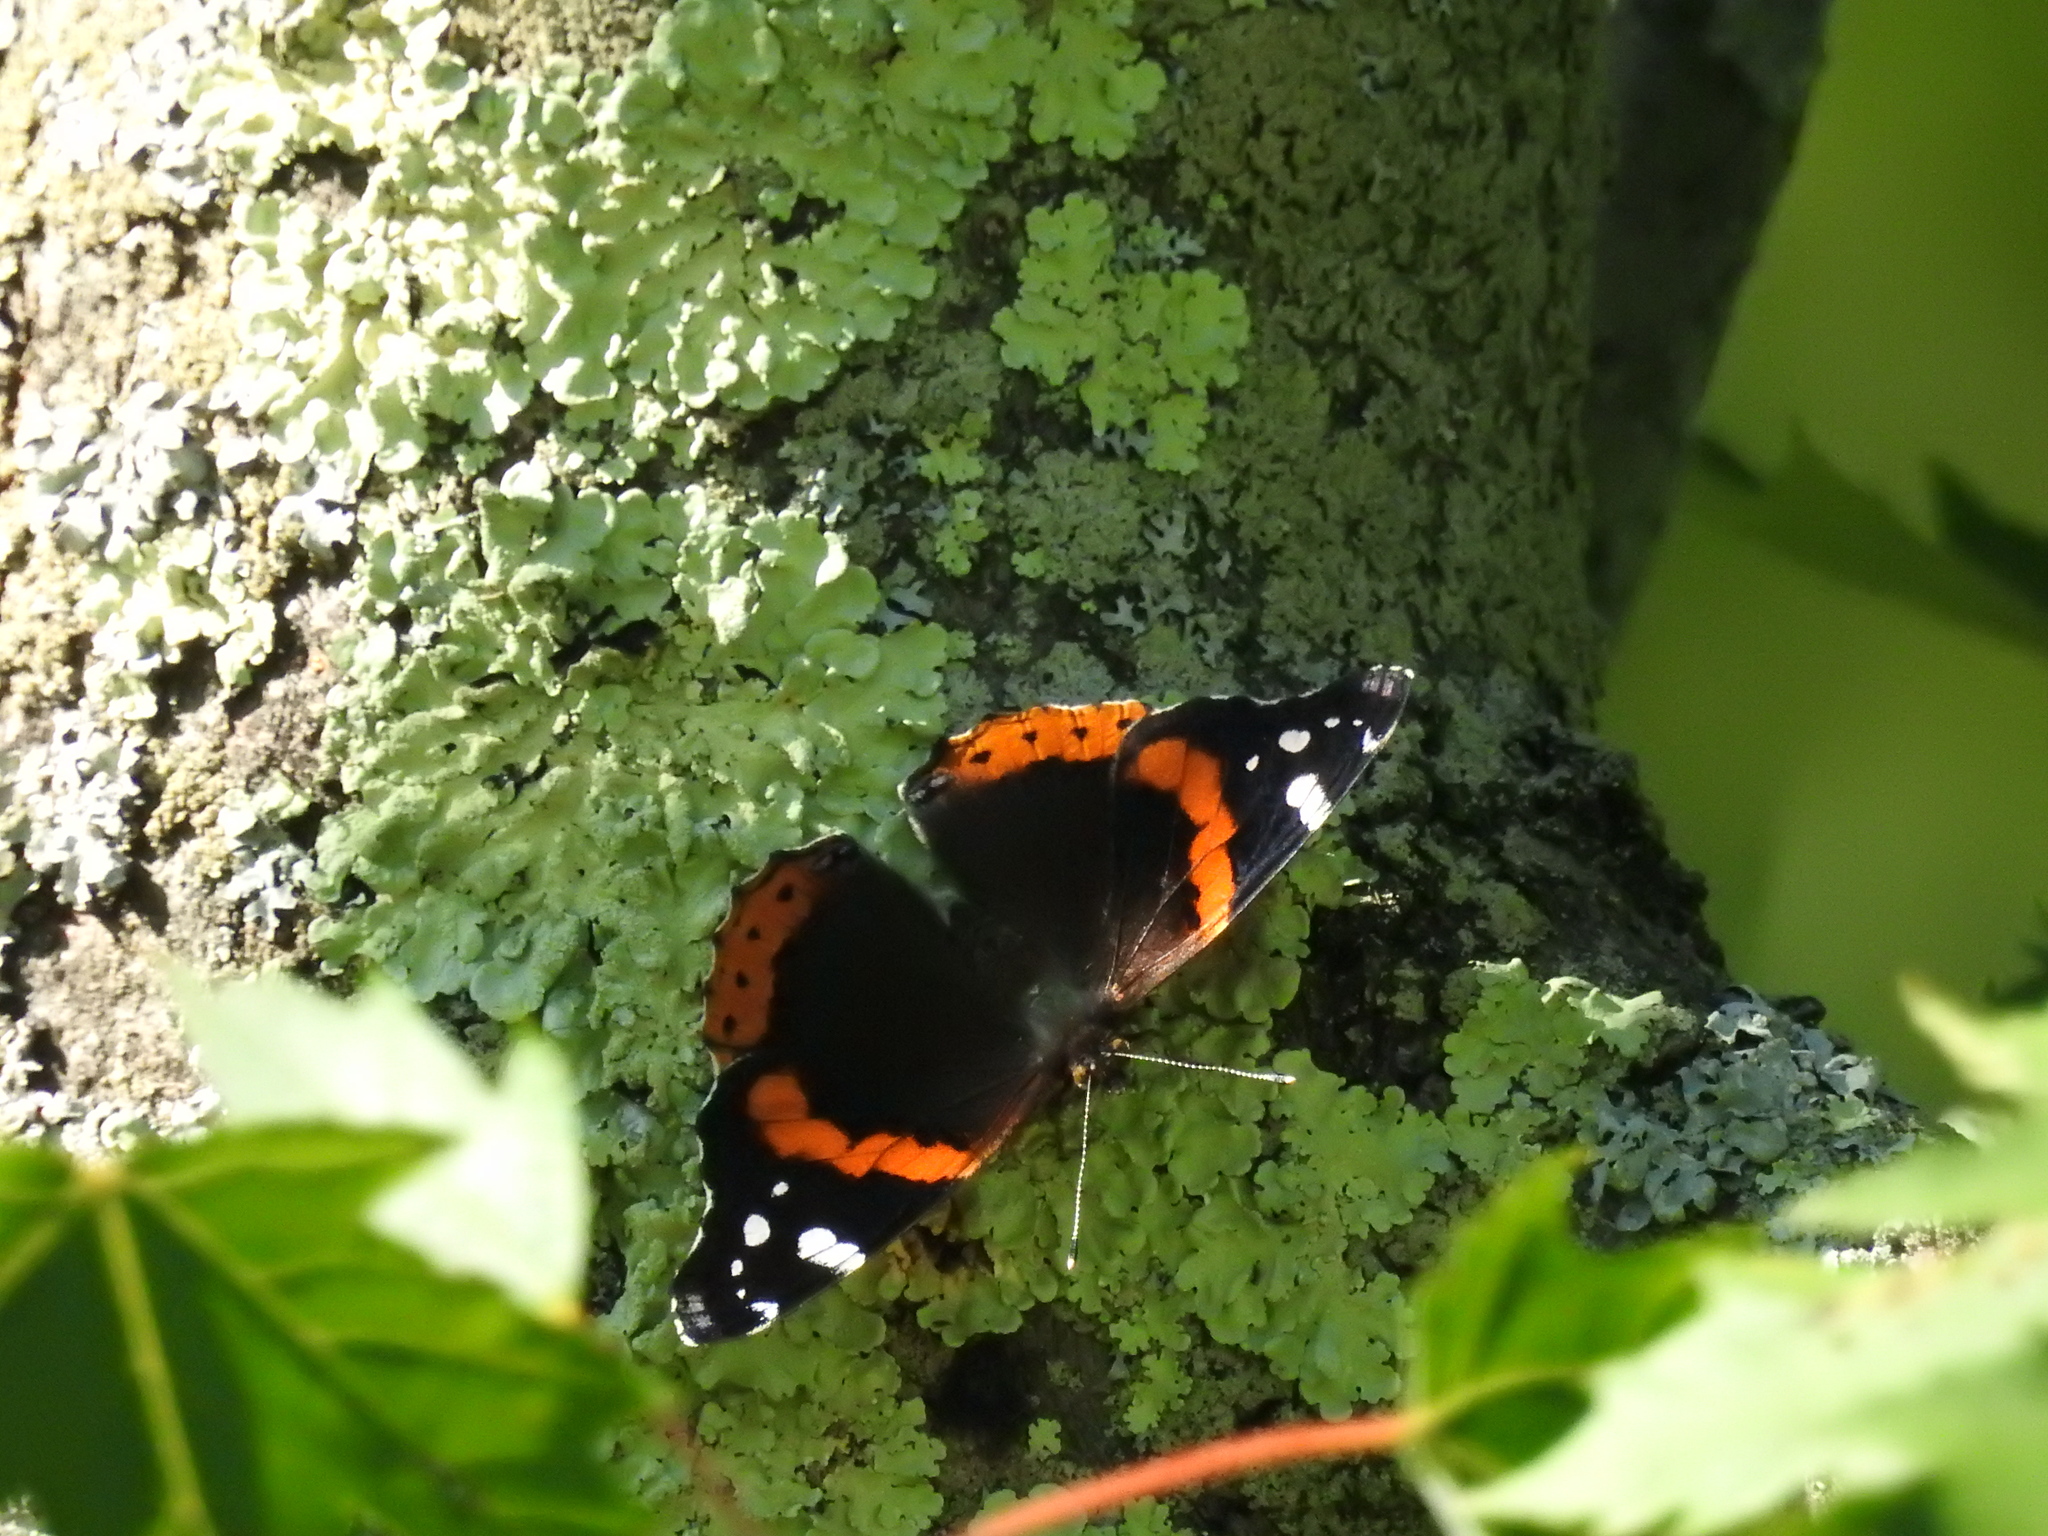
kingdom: Animalia
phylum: Arthropoda
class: Insecta
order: Lepidoptera
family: Nymphalidae
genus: Vanessa
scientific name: Vanessa atalanta
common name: Red admiral
